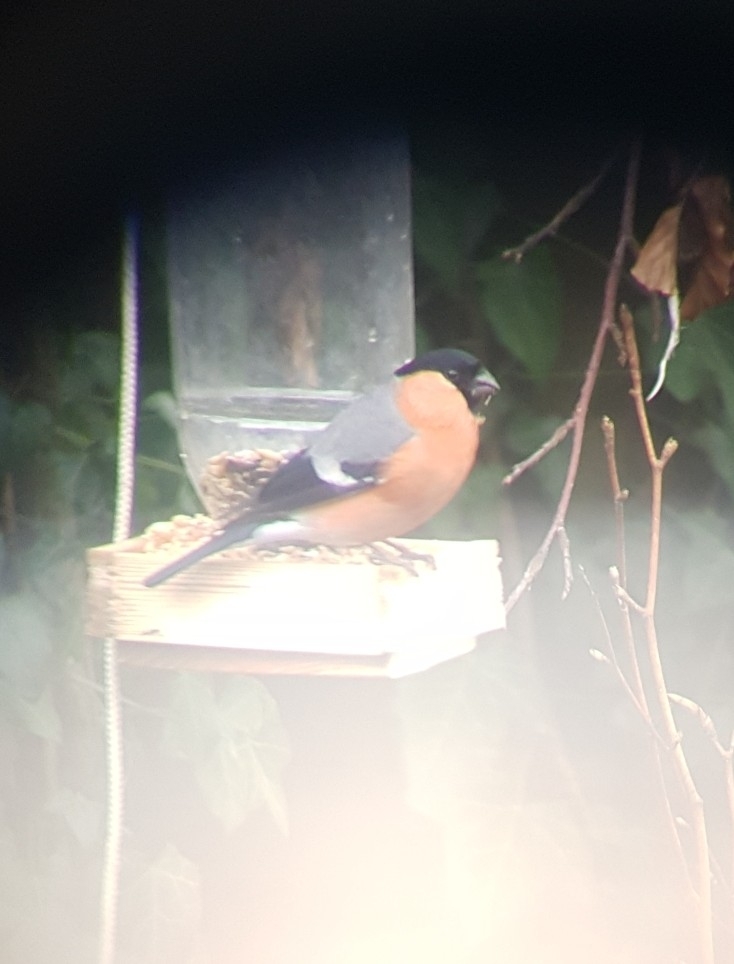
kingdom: Animalia
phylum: Chordata
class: Aves
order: Passeriformes
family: Fringillidae
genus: Pyrrhula
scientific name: Pyrrhula pyrrhula
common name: Eurasian bullfinch
